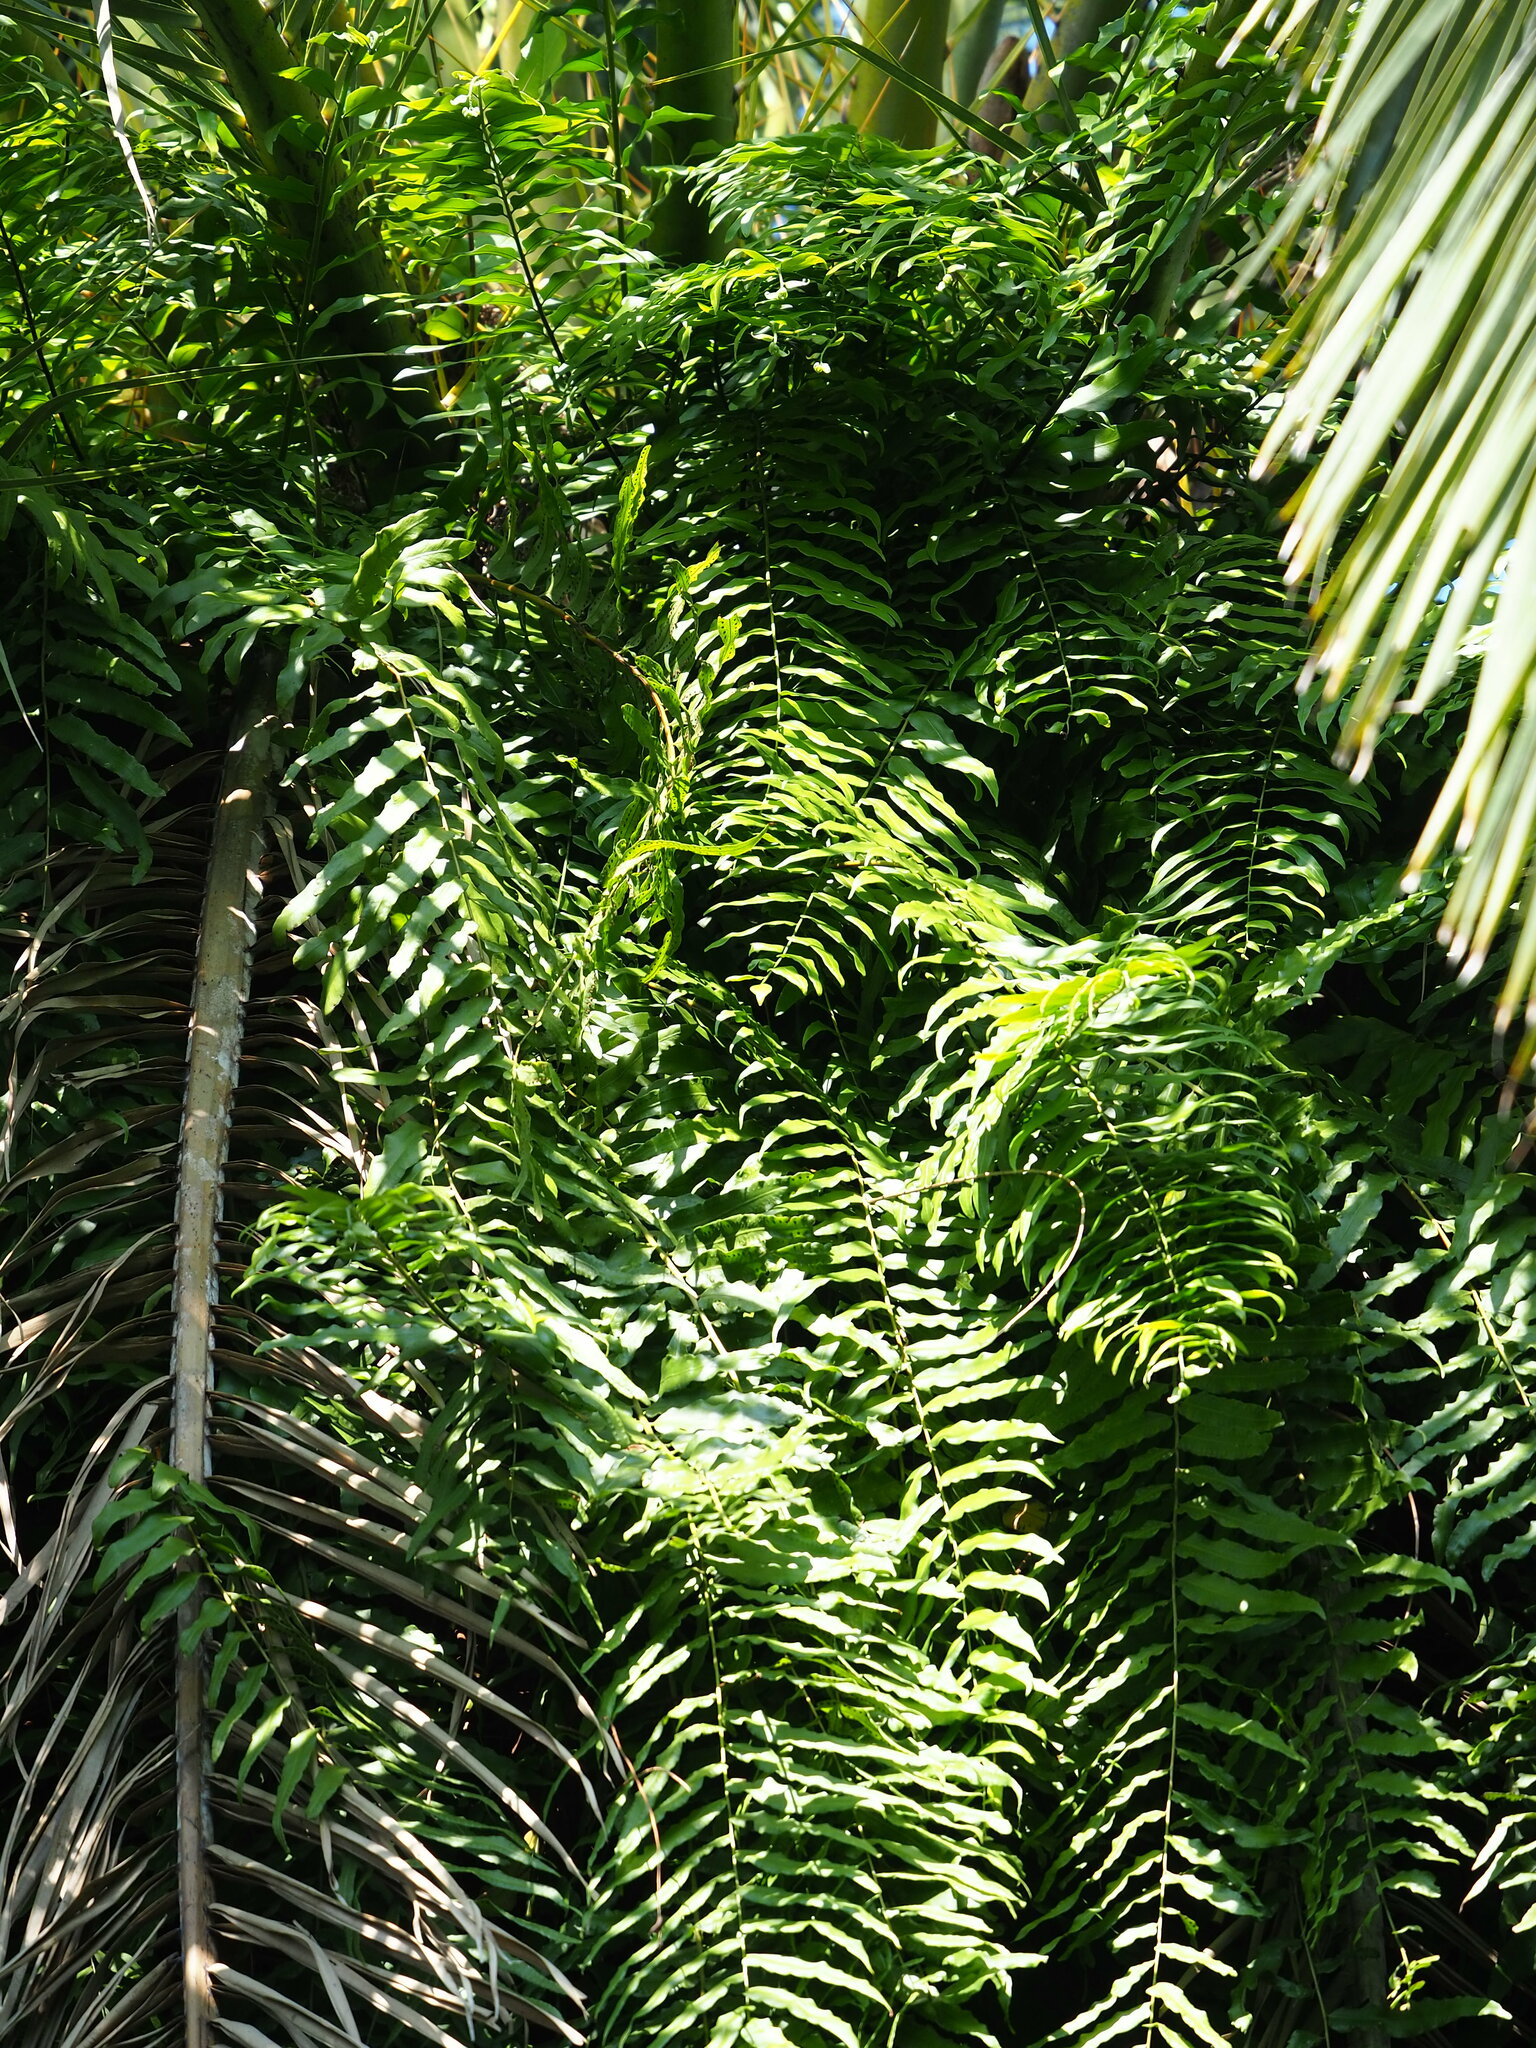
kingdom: Plantae
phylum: Tracheophyta
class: Polypodiopsida
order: Polypodiales
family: Nephrolepidaceae
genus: Nephrolepis
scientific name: Nephrolepis biserrata
